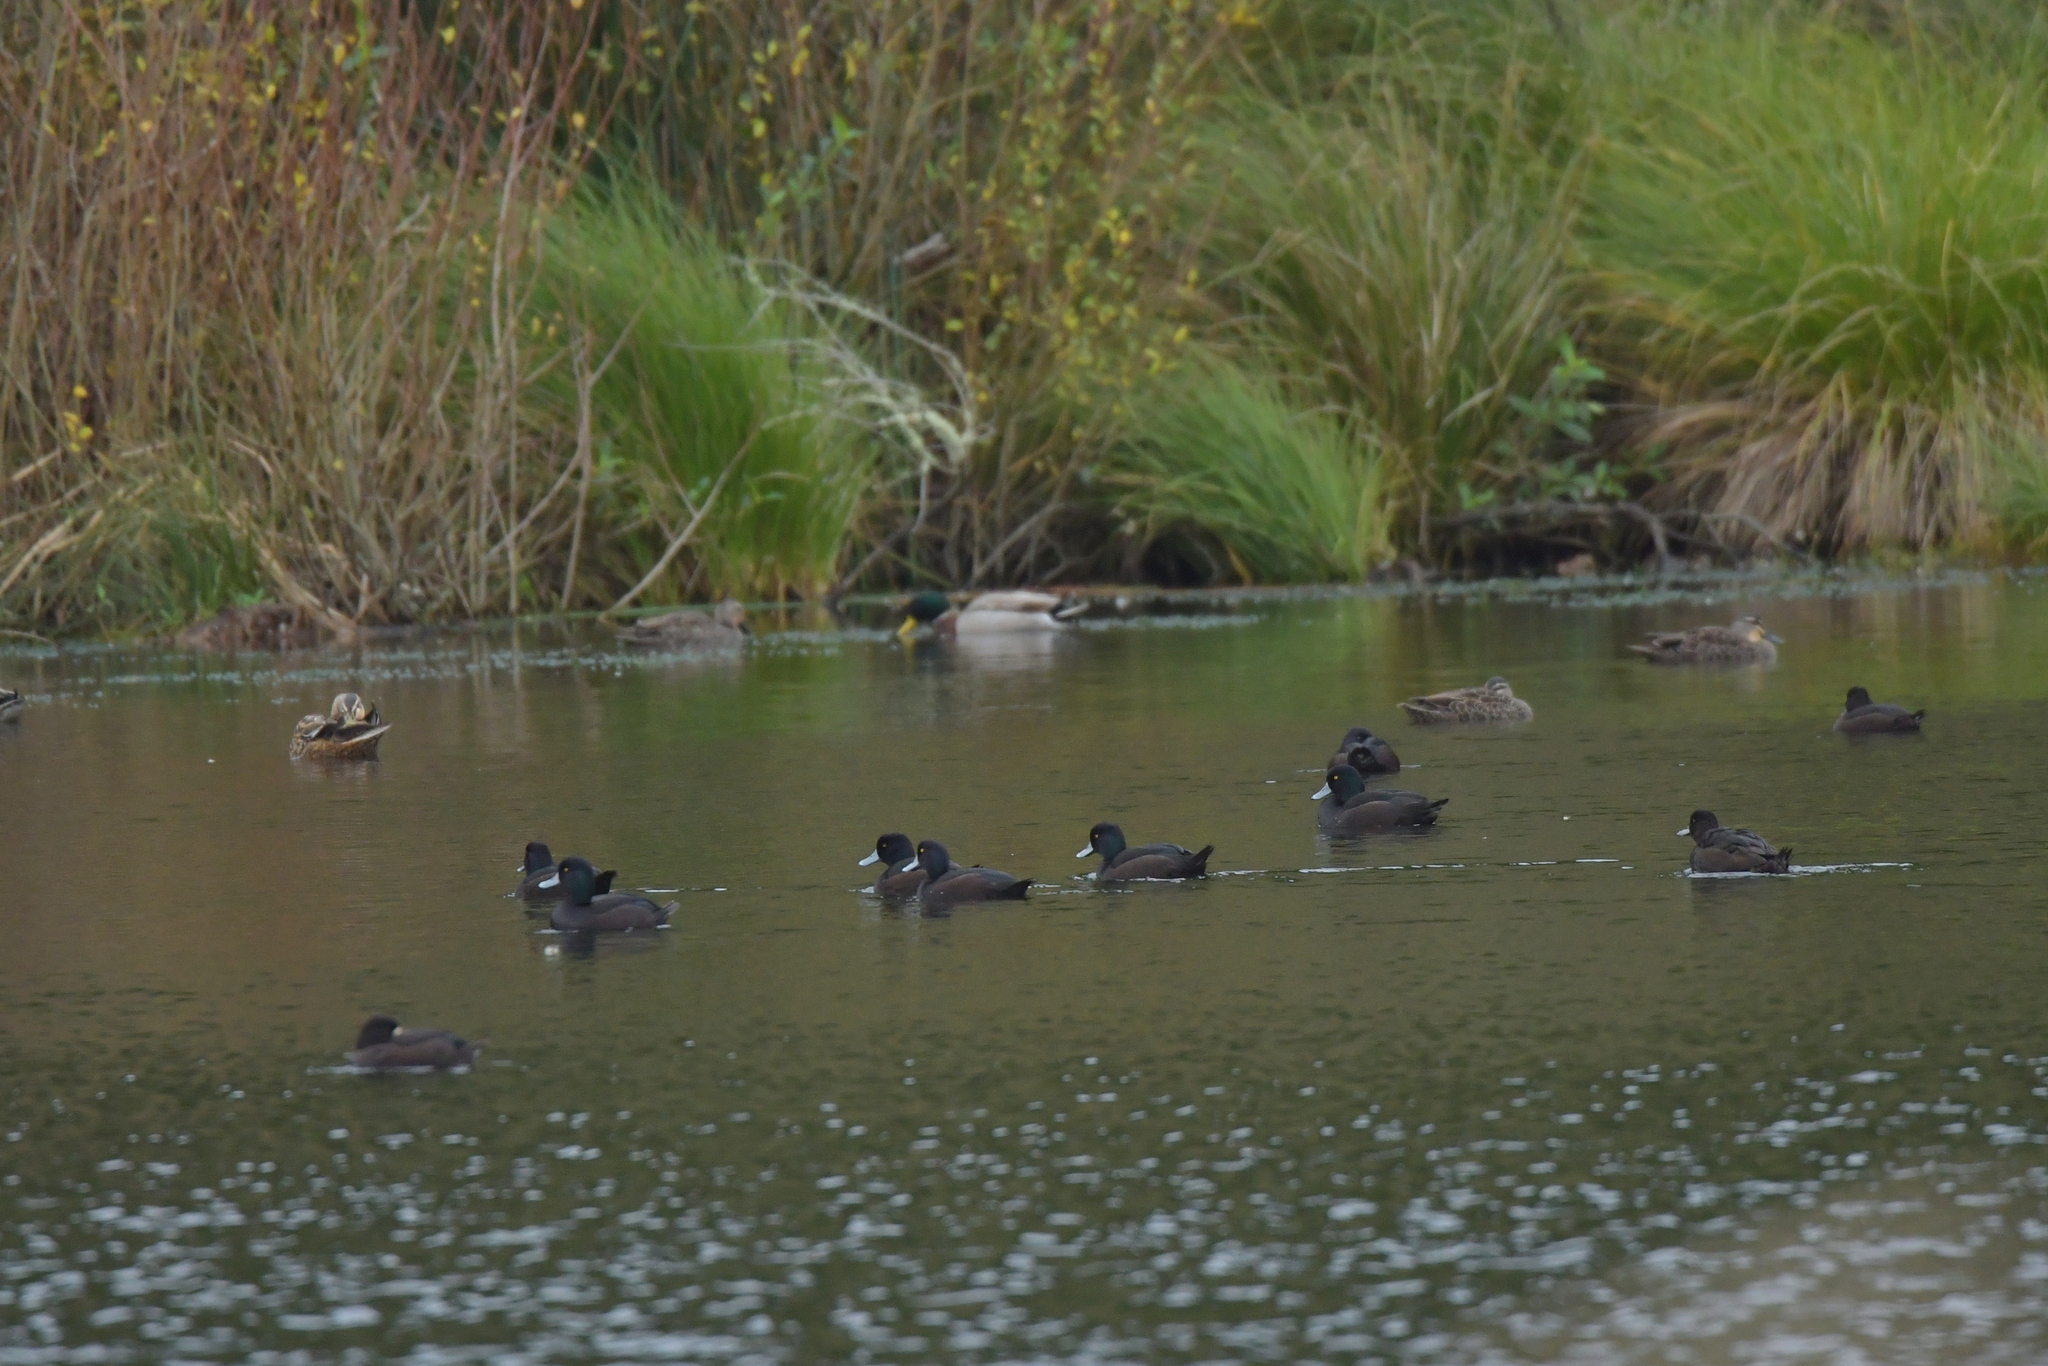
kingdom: Animalia
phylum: Chordata
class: Aves
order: Anseriformes
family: Anatidae
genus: Aythya
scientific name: Aythya novaeseelandiae
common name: New zealand scaup
